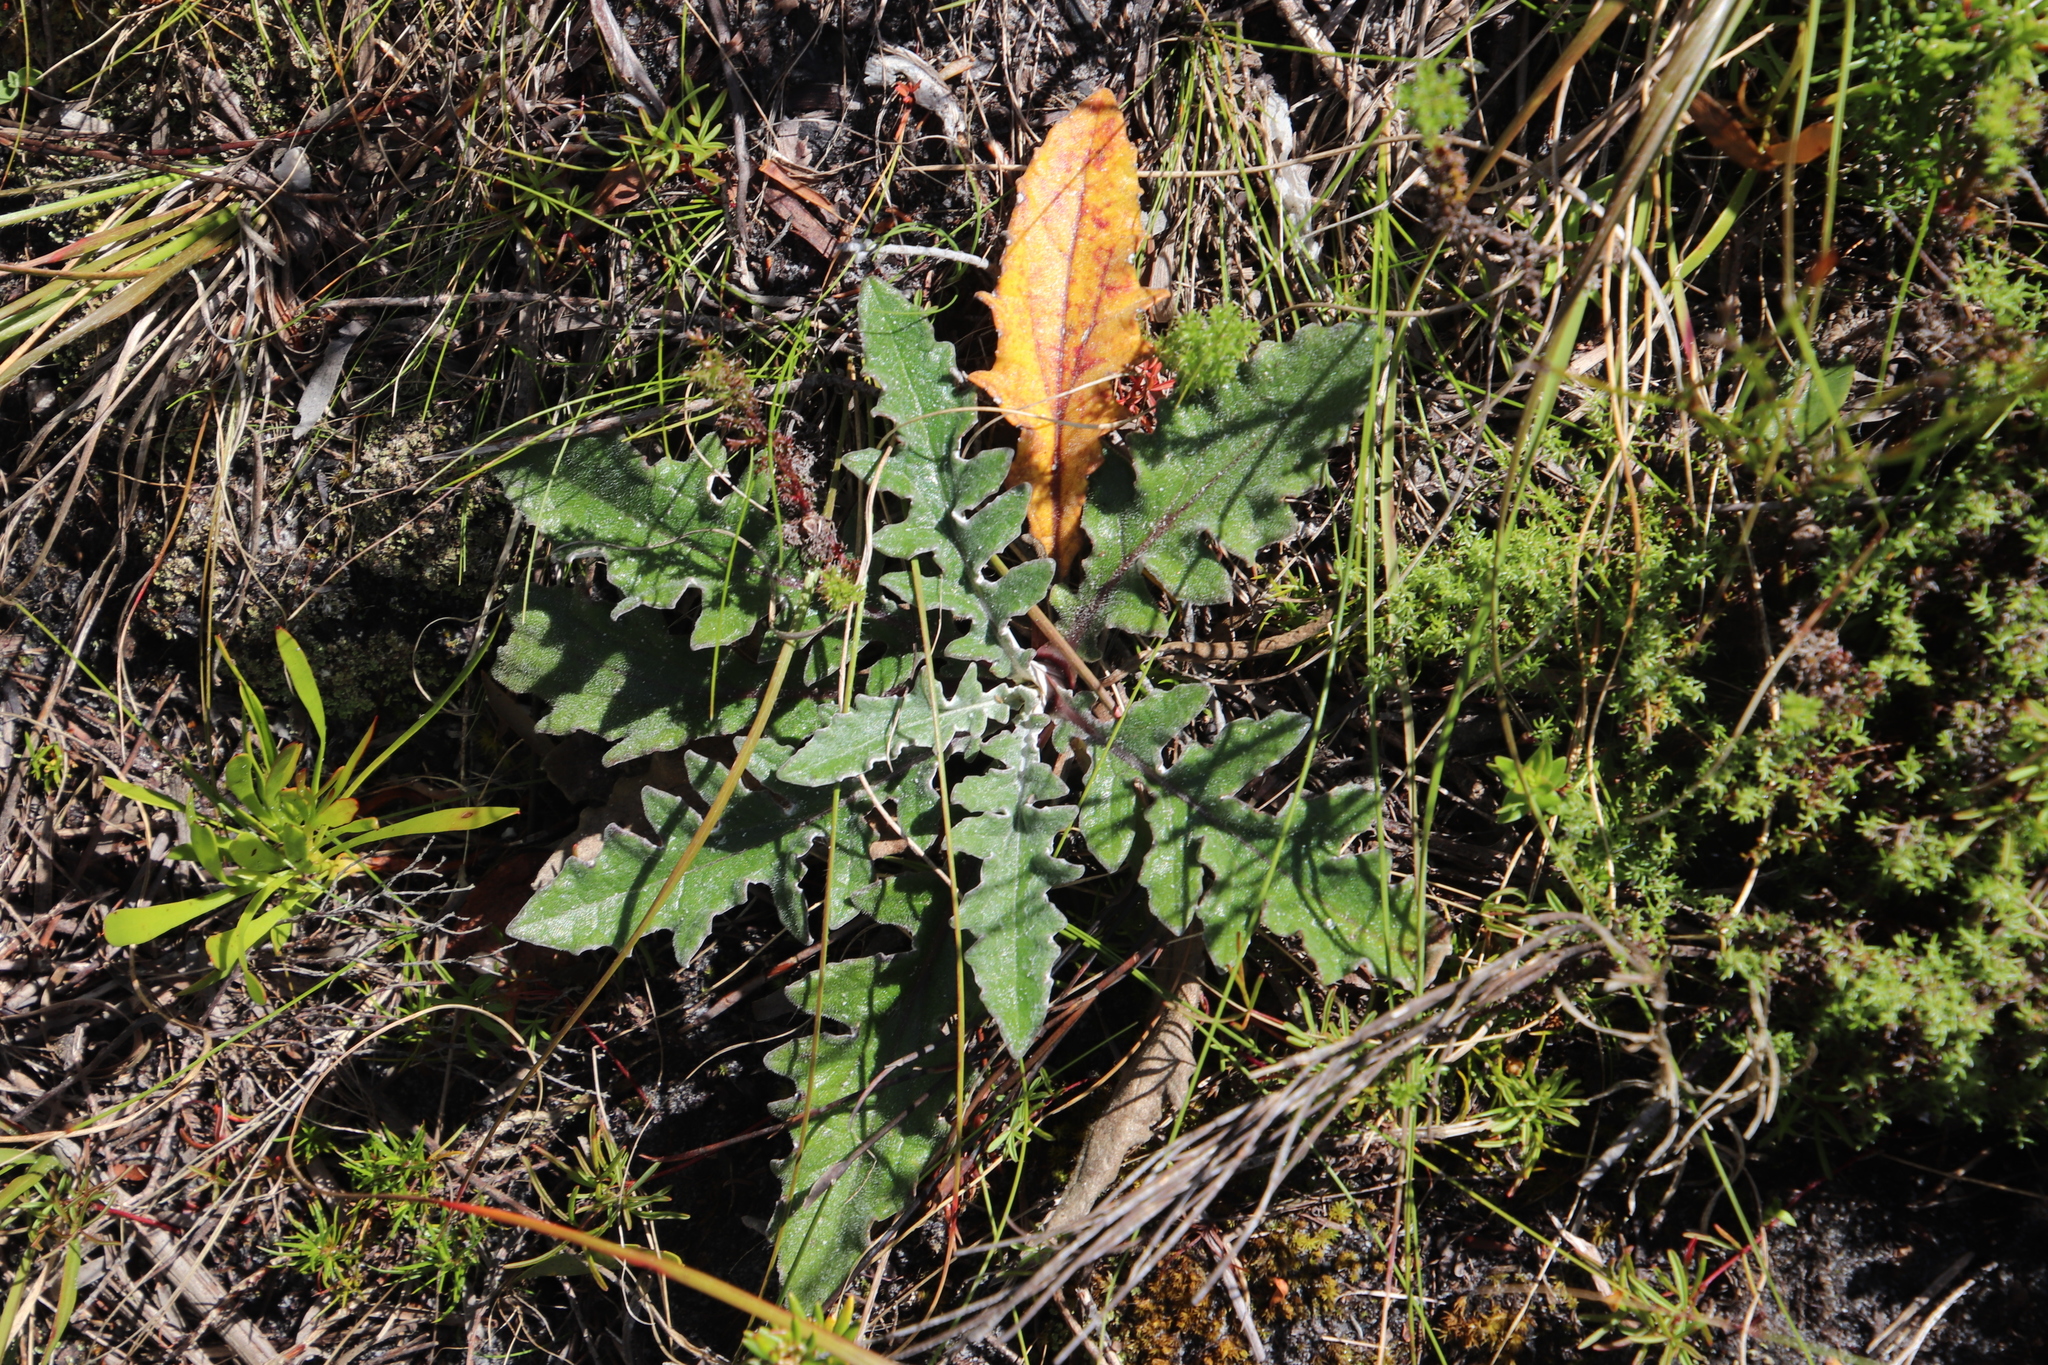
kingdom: Plantae
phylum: Tracheophyta
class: Magnoliopsida
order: Asterales
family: Asteraceae
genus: Arctotis
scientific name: Arctotis acaulis
